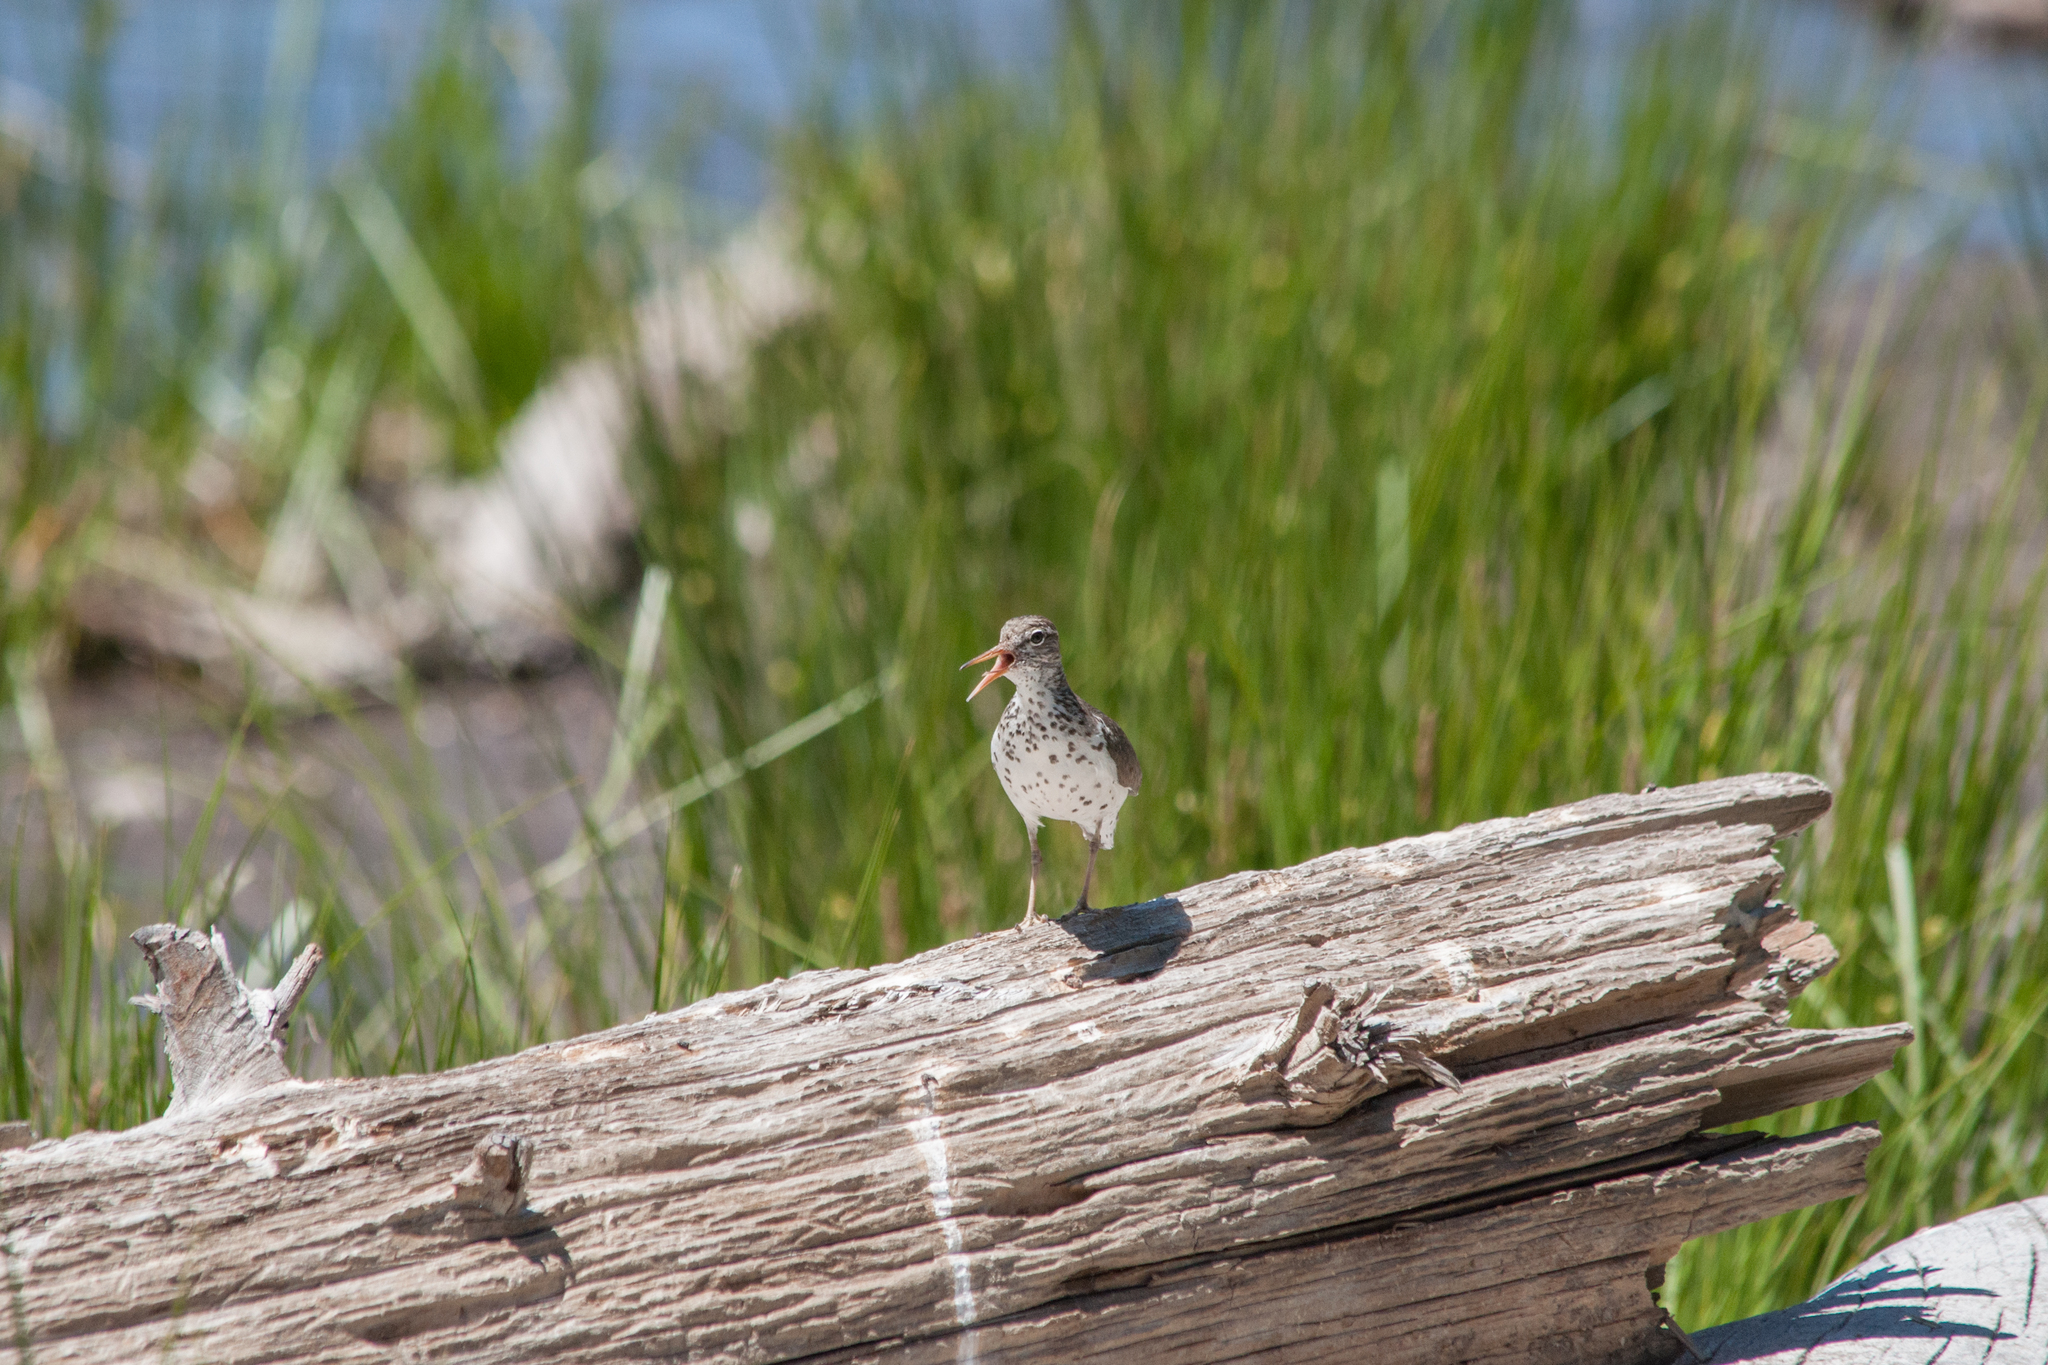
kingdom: Animalia
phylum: Chordata
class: Aves
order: Charadriiformes
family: Scolopacidae
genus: Actitis
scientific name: Actitis macularius
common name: Spotted sandpiper
